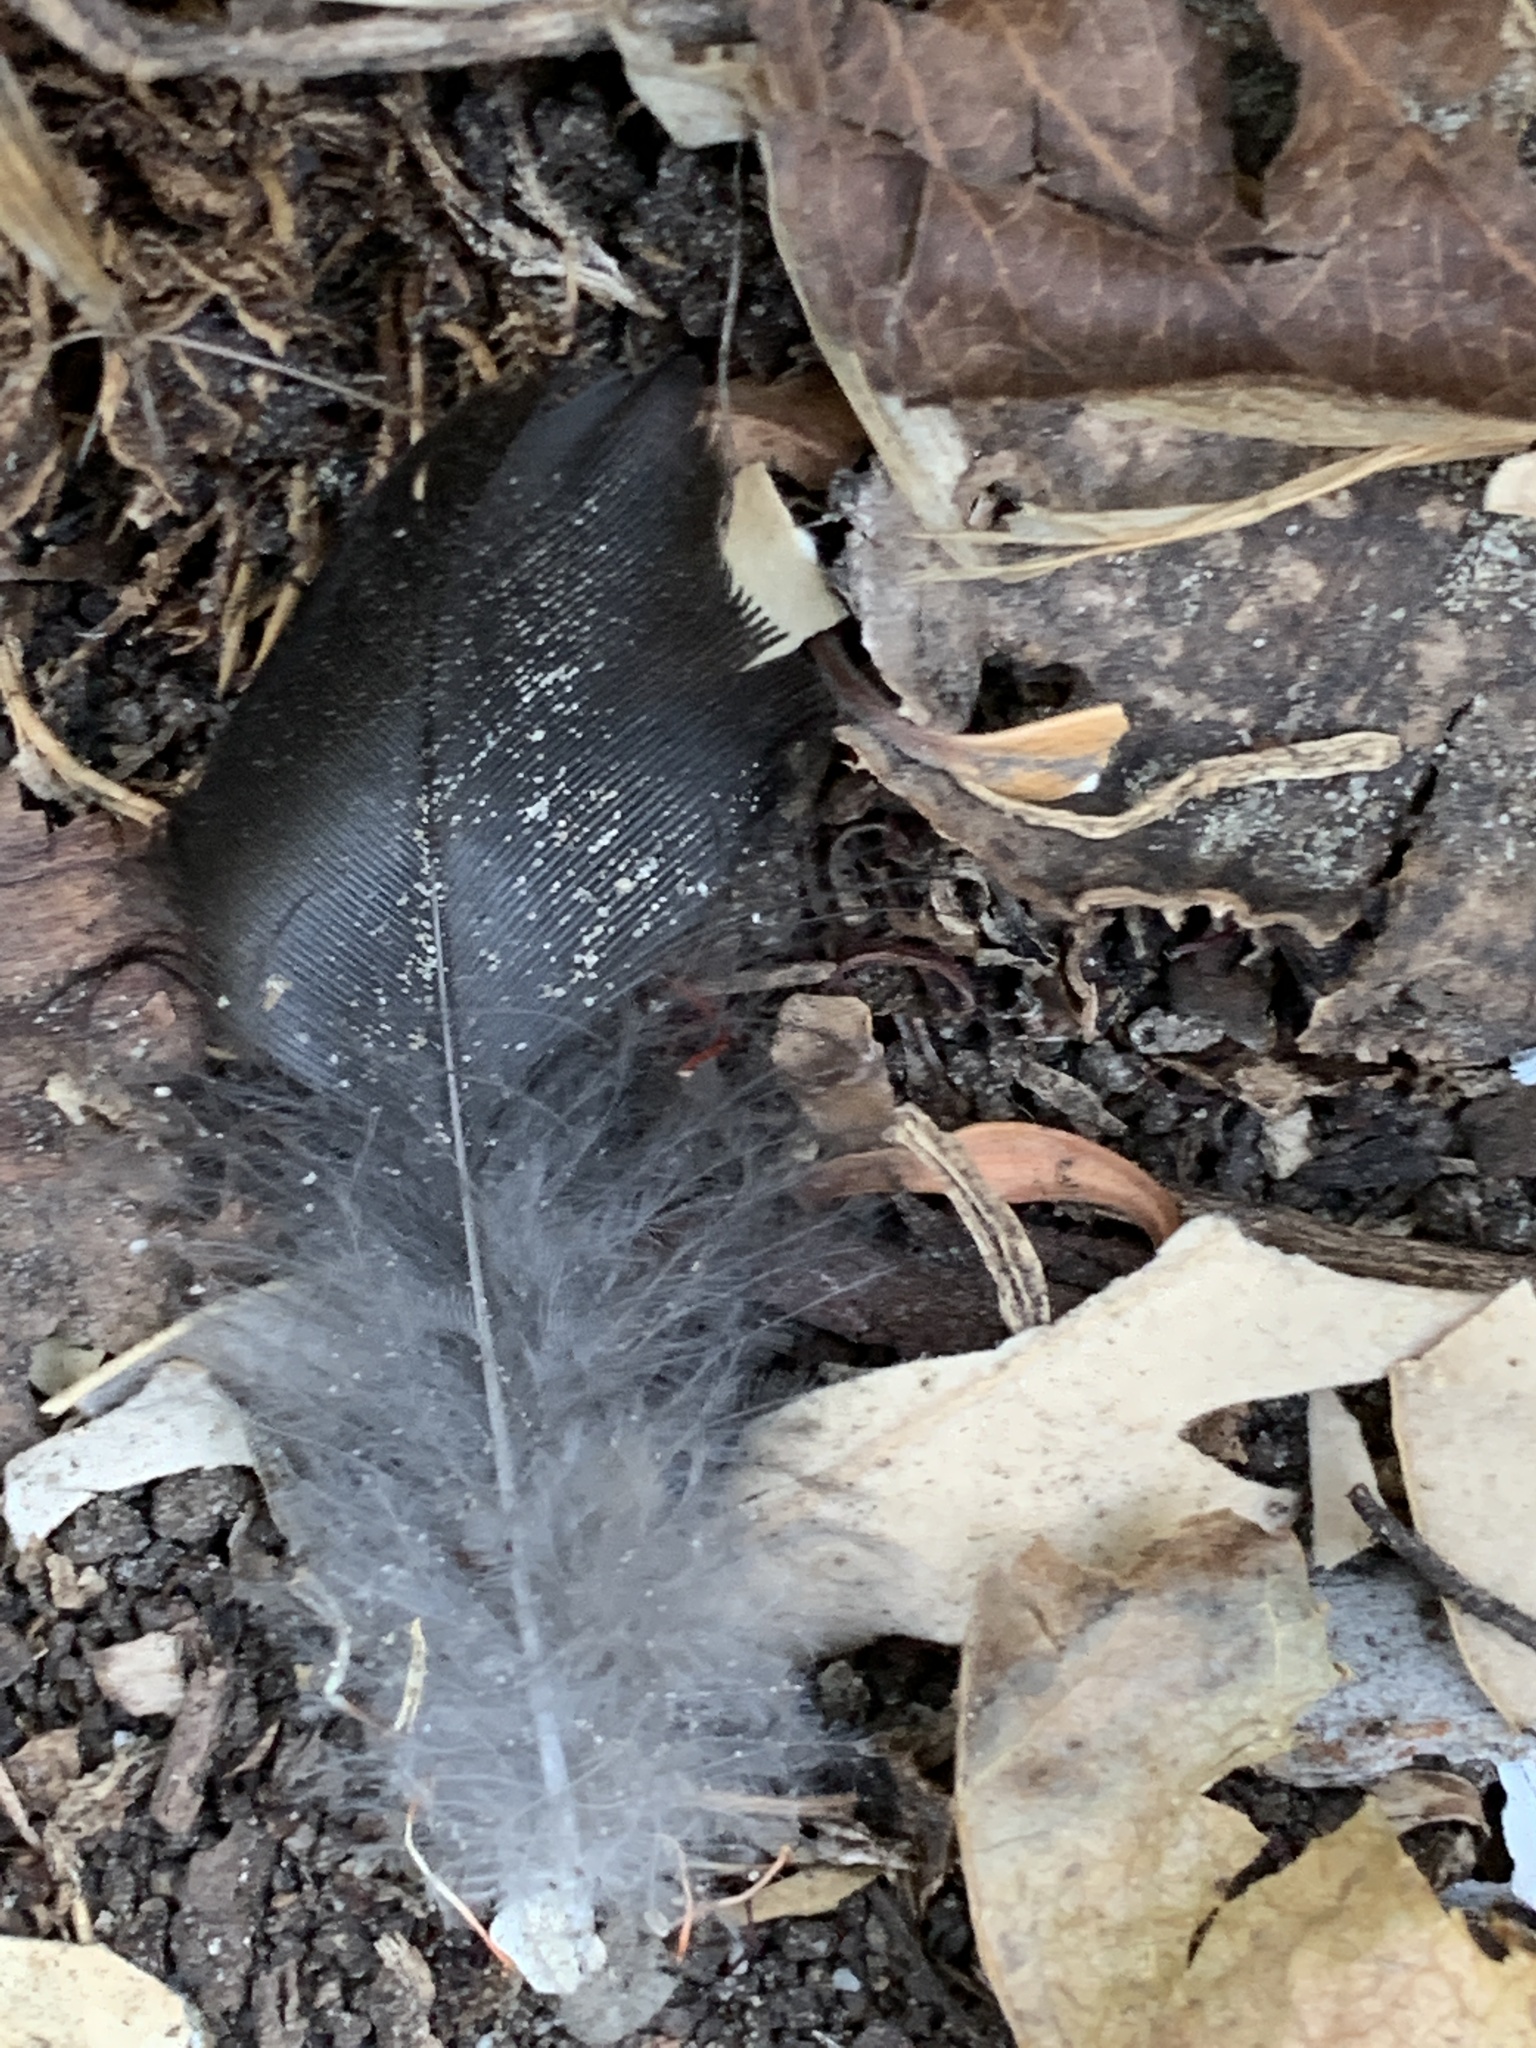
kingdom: Animalia
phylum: Chordata
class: Aves
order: Passeriformes
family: Corvidae
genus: Corvus
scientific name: Corvus brachyrhynchos
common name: American crow
